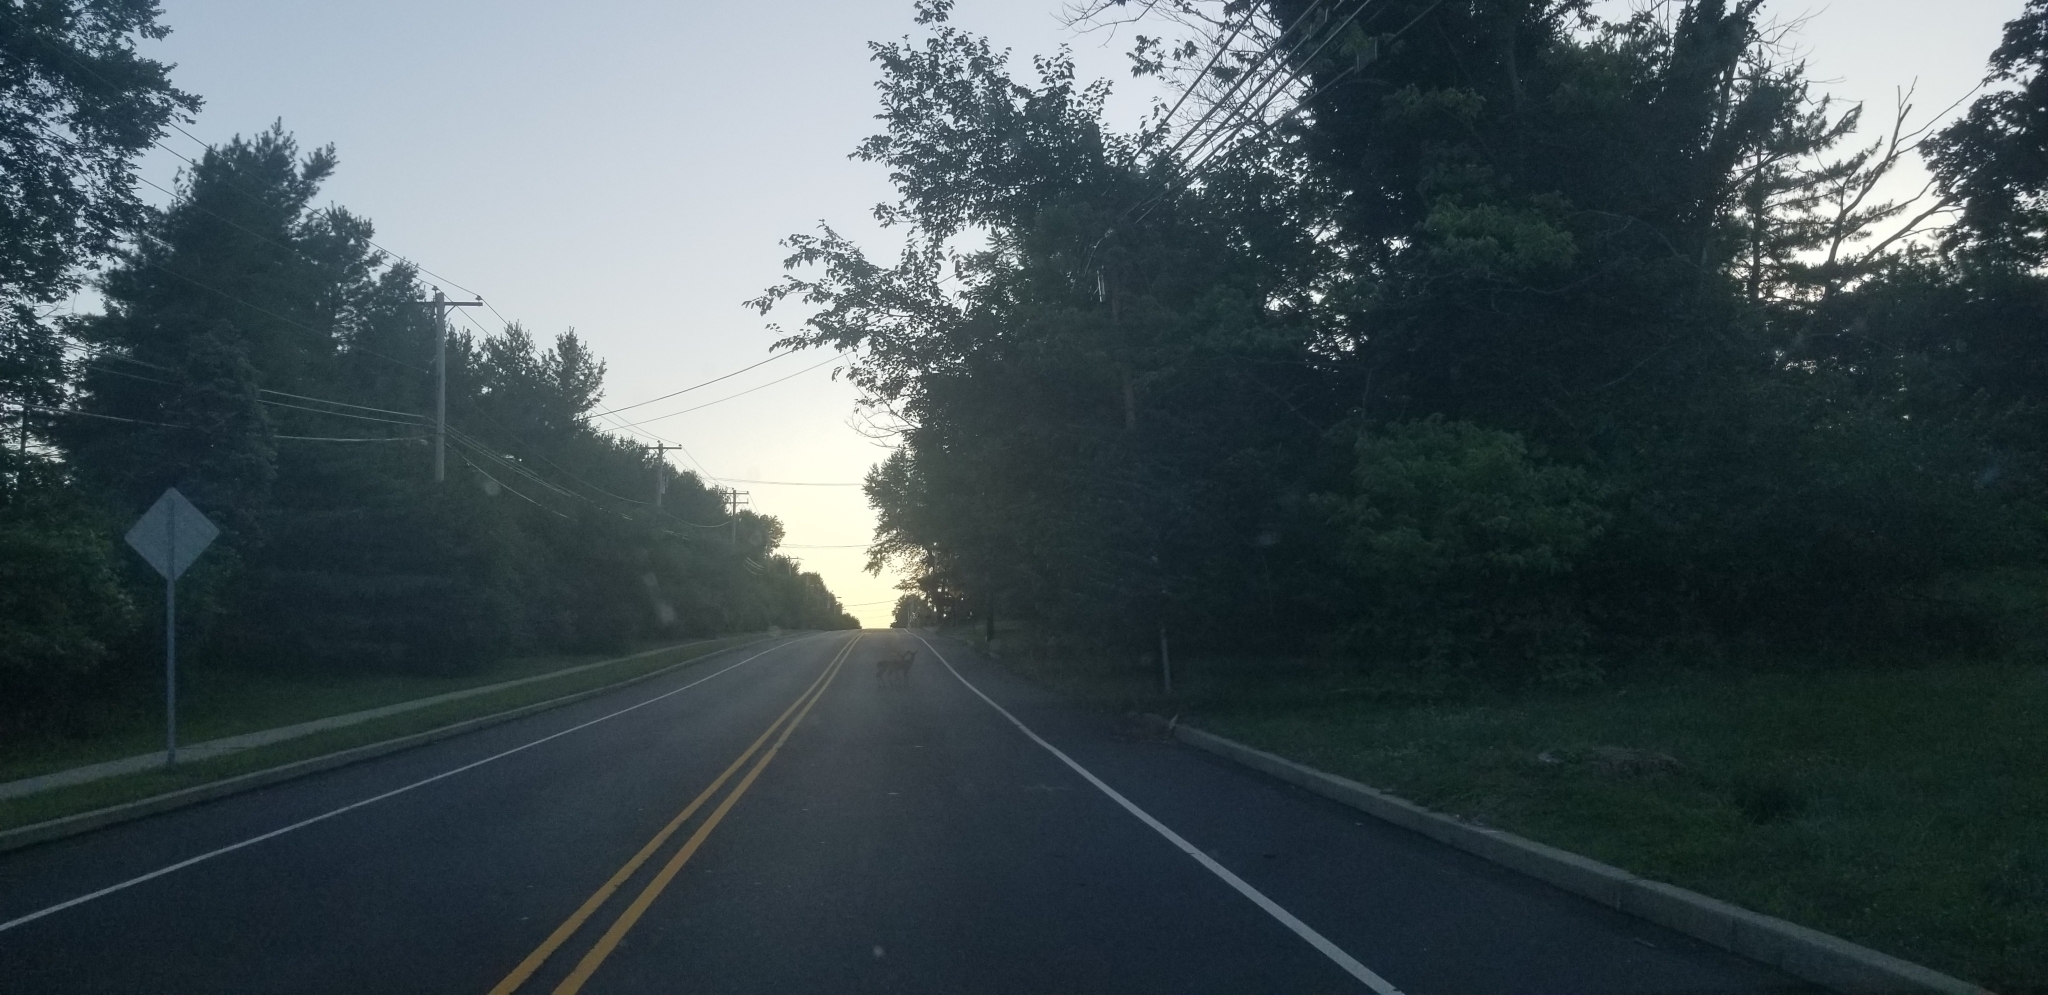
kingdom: Animalia
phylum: Chordata
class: Mammalia
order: Artiodactyla
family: Cervidae
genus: Odocoileus
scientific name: Odocoileus virginianus
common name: White-tailed deer
